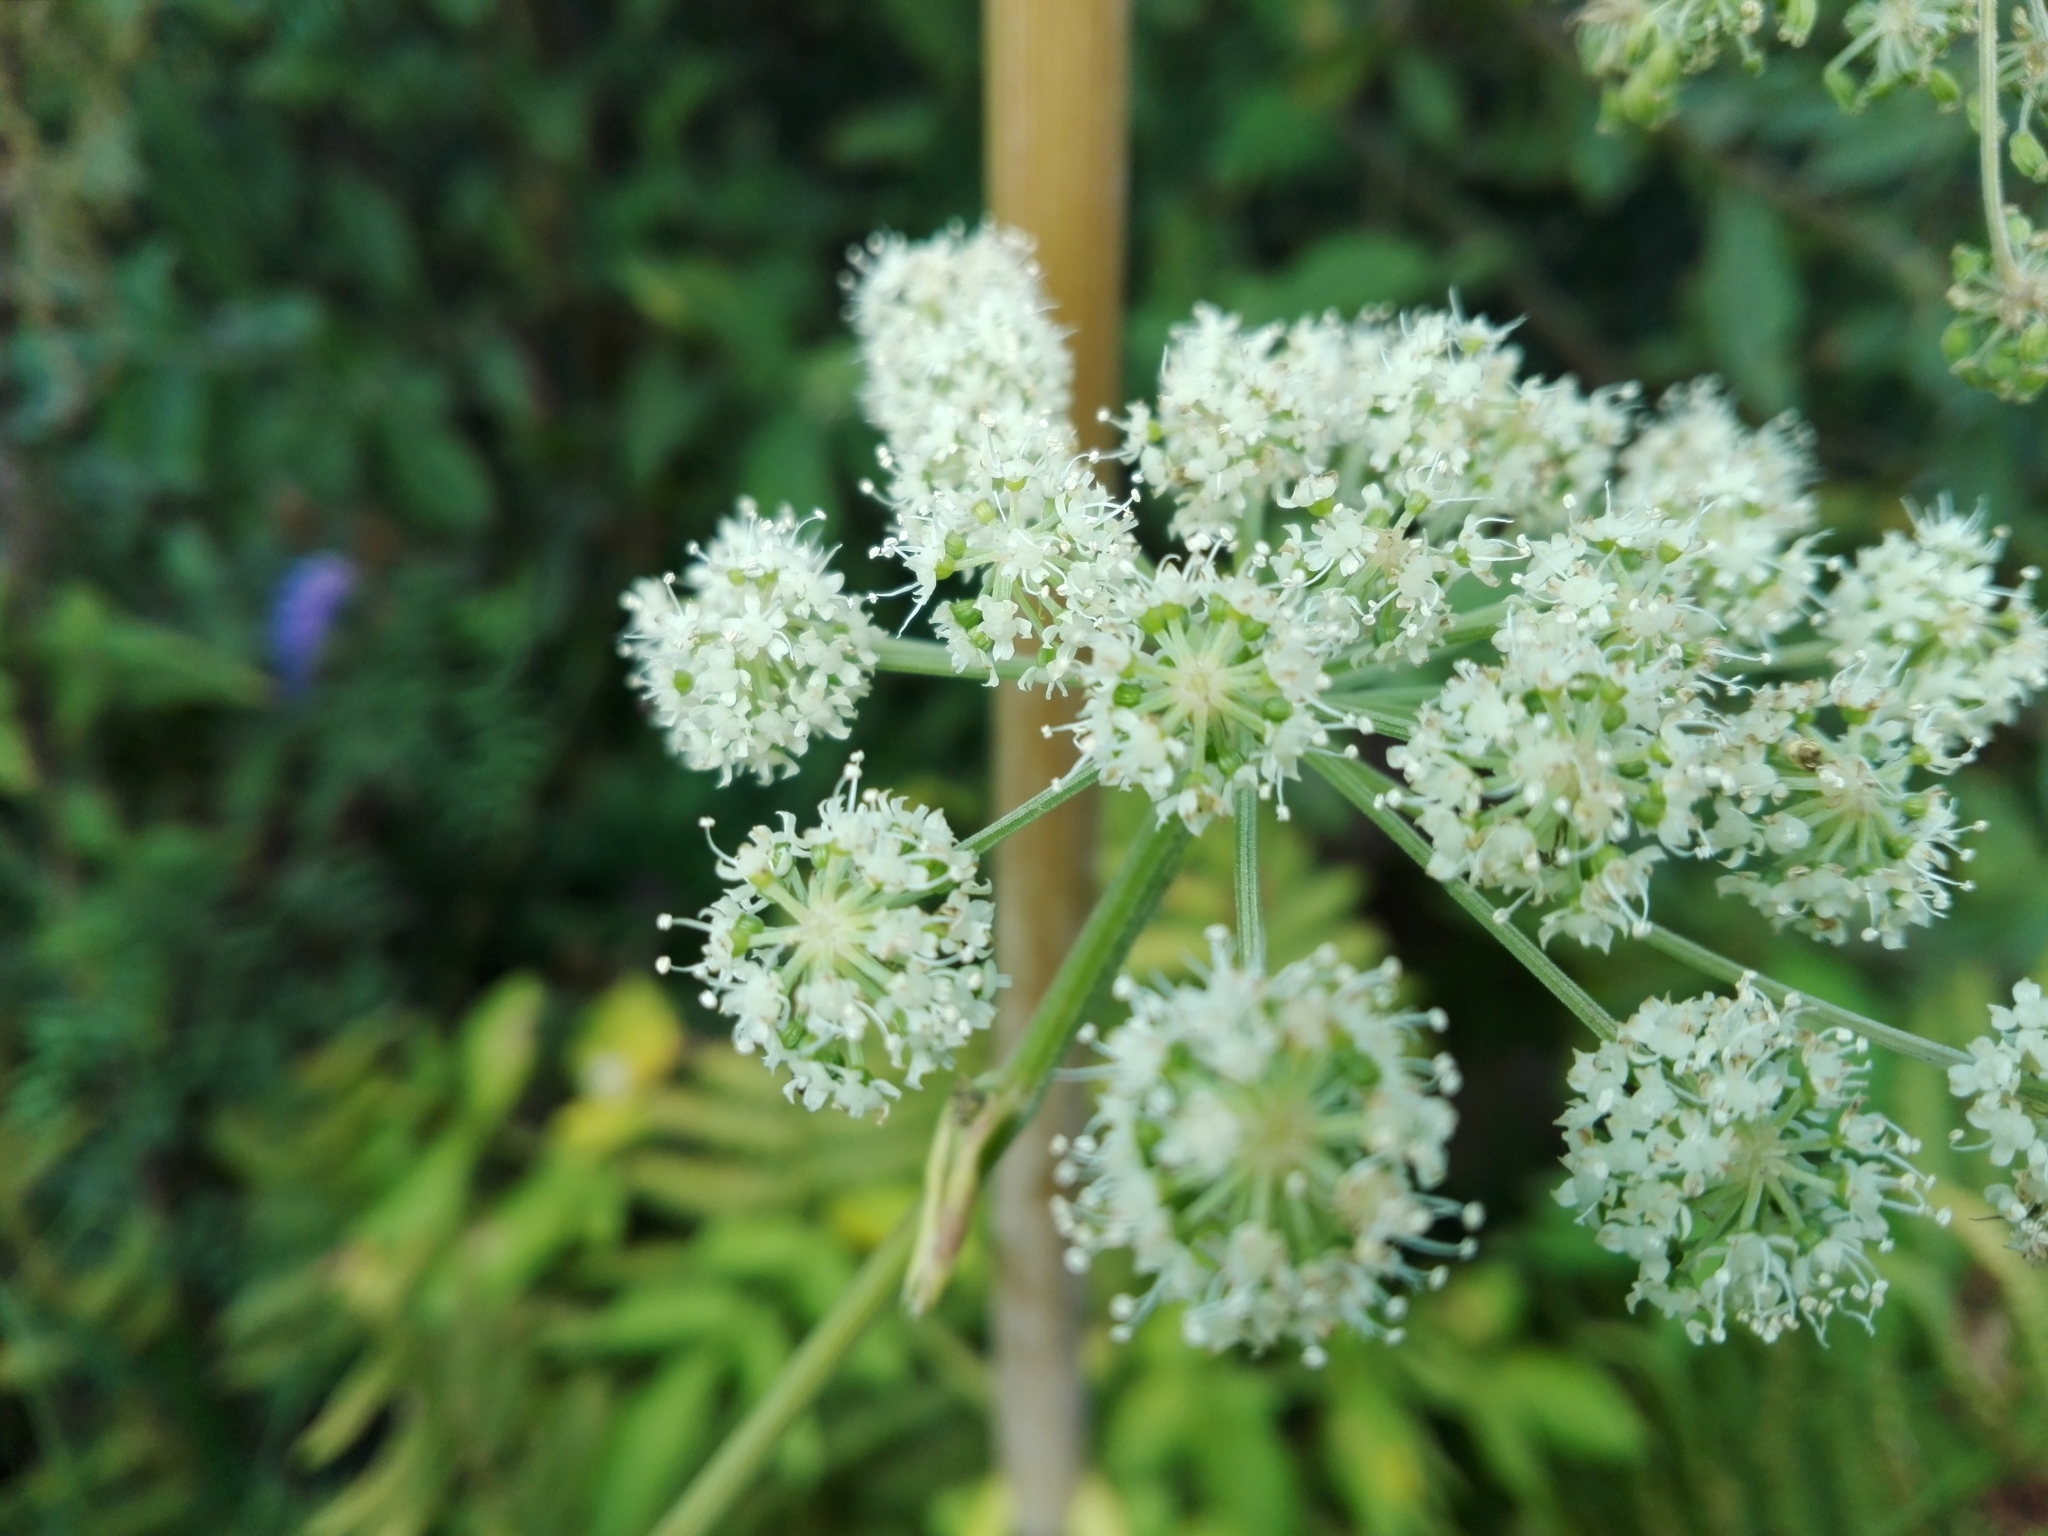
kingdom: Plantae
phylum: Tracheophyta
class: Magnoliopsida
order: Apiales
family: Apiaceae
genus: Angelica
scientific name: Angelica sylvestris
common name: Wild angelica
